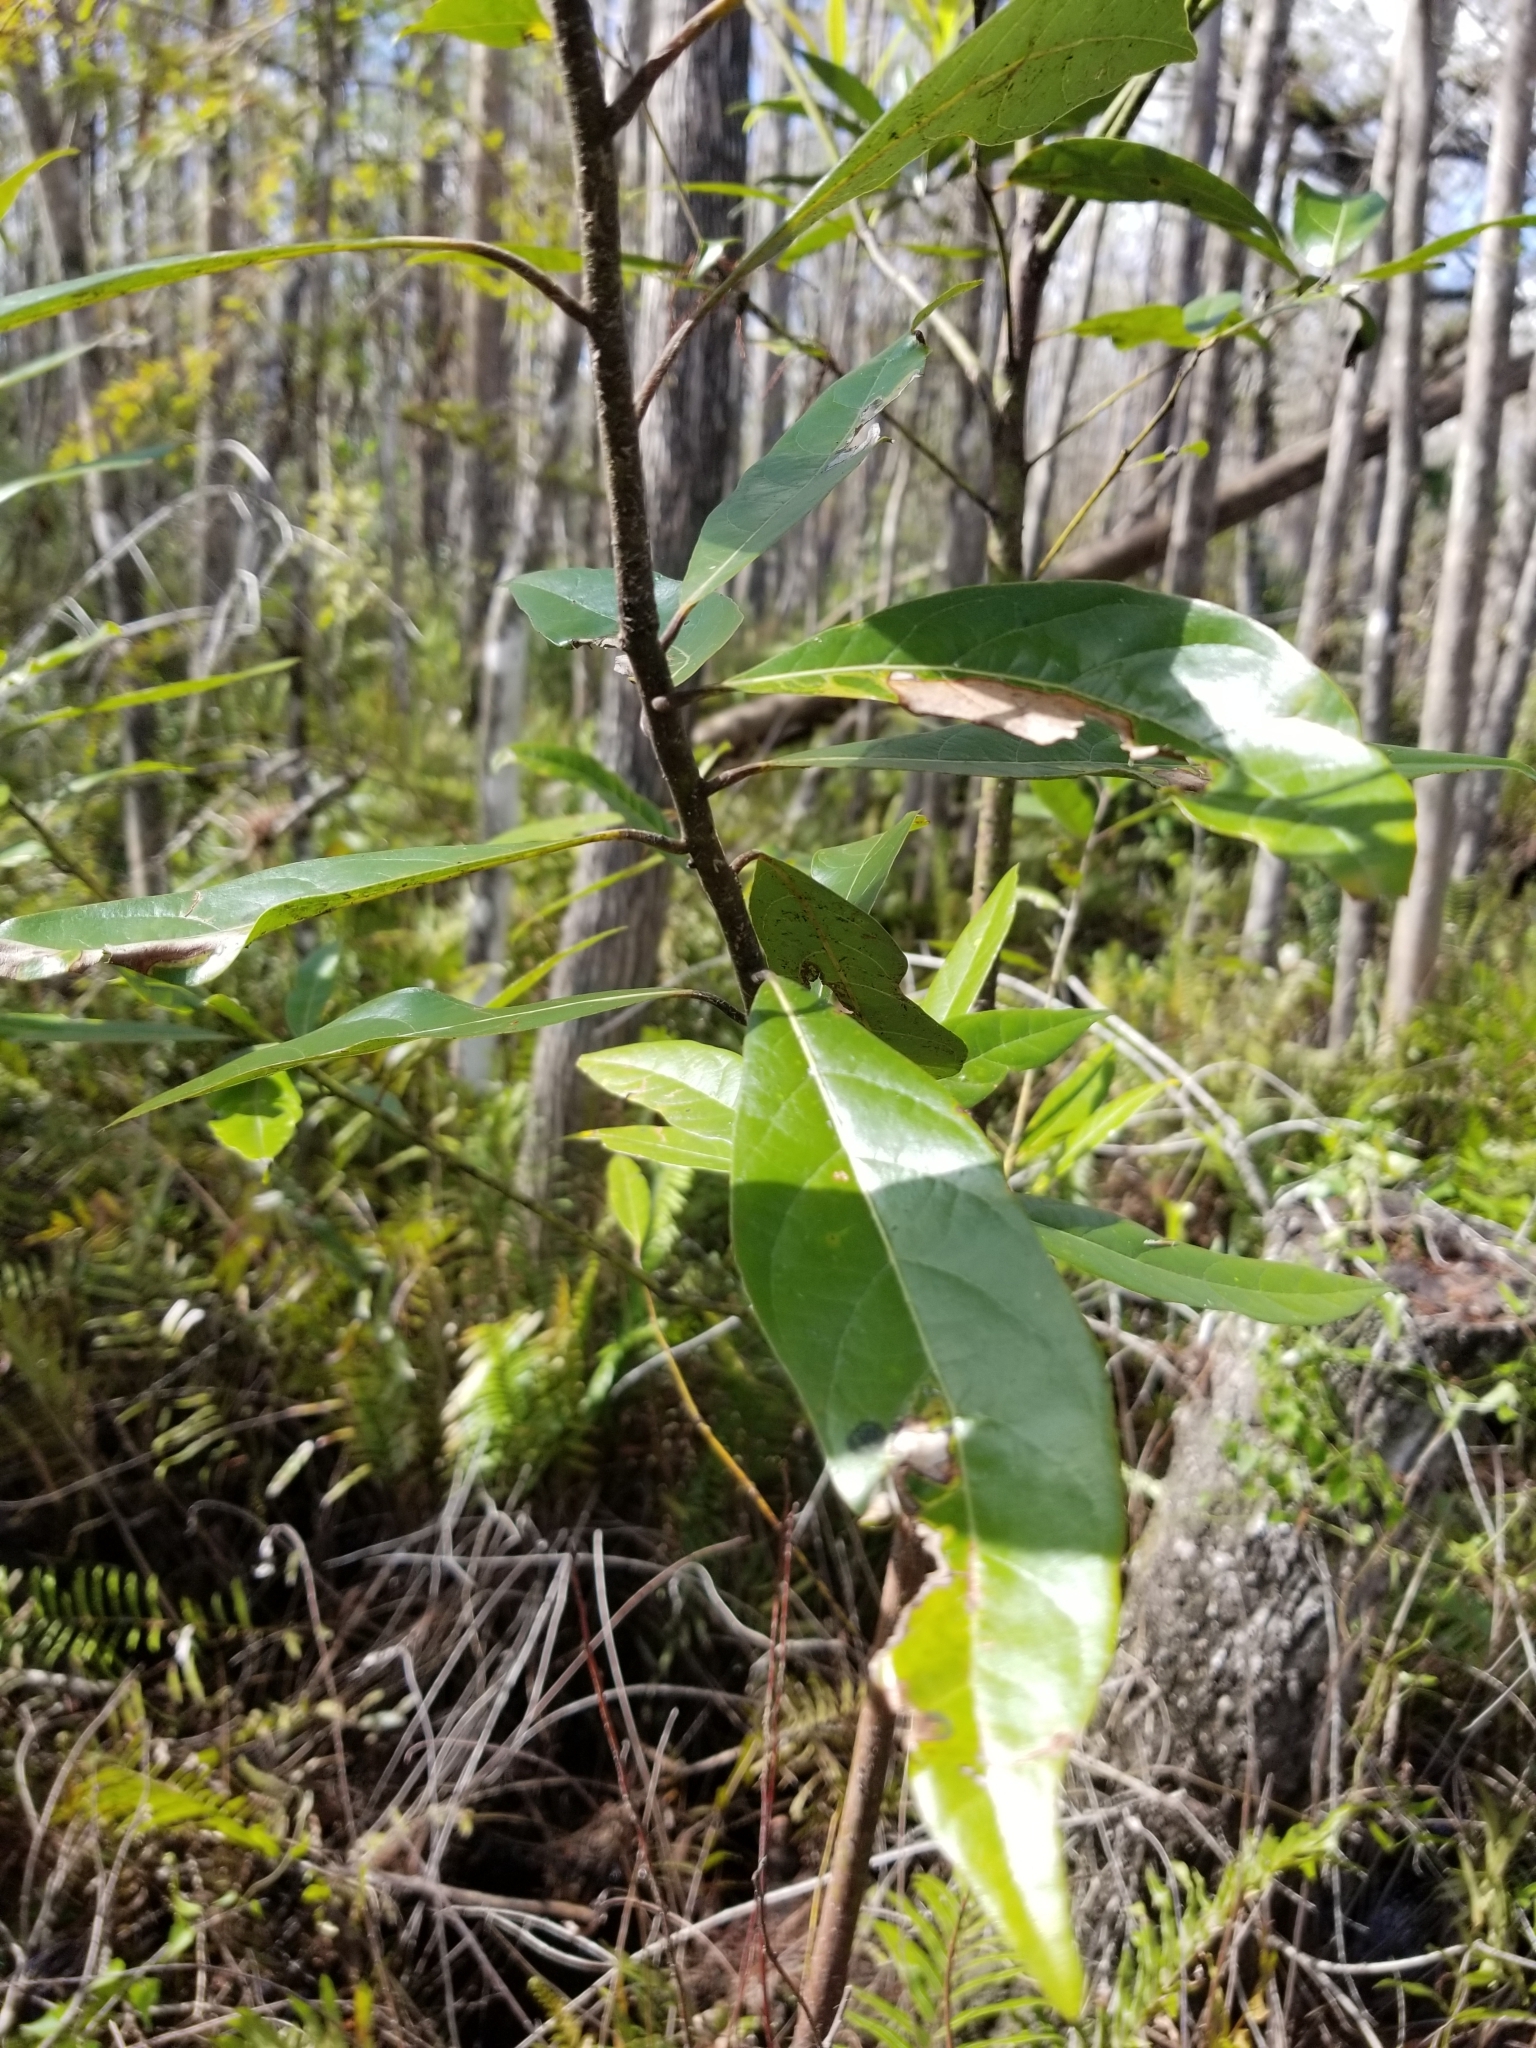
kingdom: Plantae
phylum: Tracheophyta
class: Magnoliopsida
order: Laurales
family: Lauraceae
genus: Persea
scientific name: Persea palustris
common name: Swampbay
